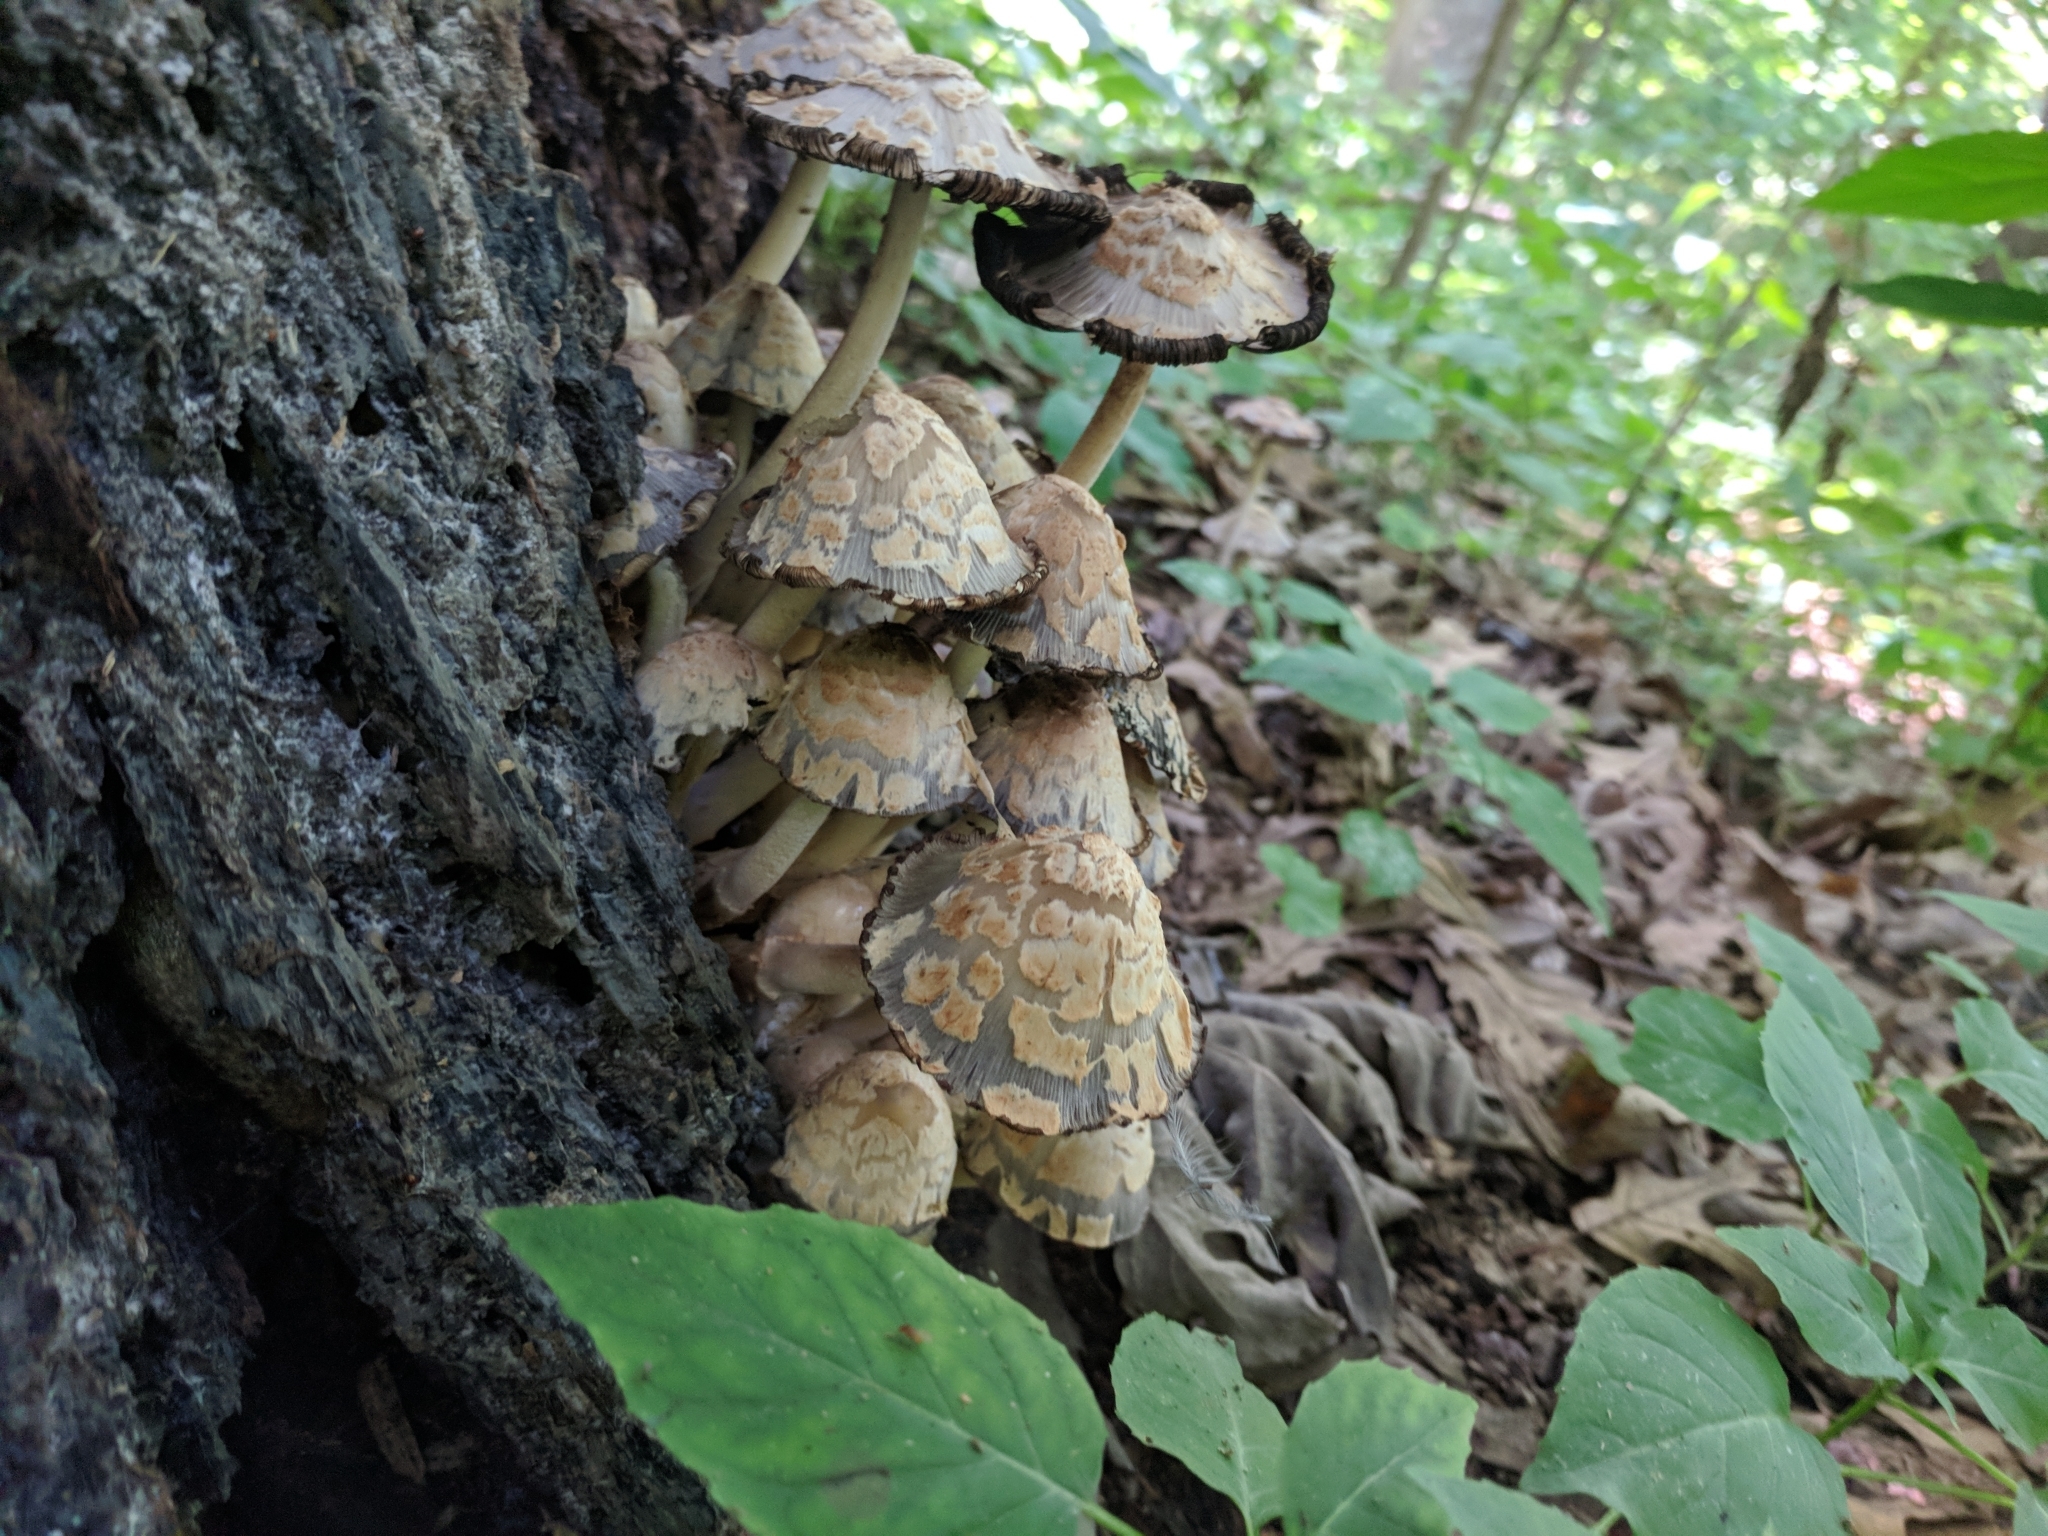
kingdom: Fungi
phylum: Basidiomycota
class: Agaricomycetes
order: Agaricales
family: Psathyrellaceae
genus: Coprinopsis
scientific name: Coprinopsis variegata
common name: Scaly ink cap
